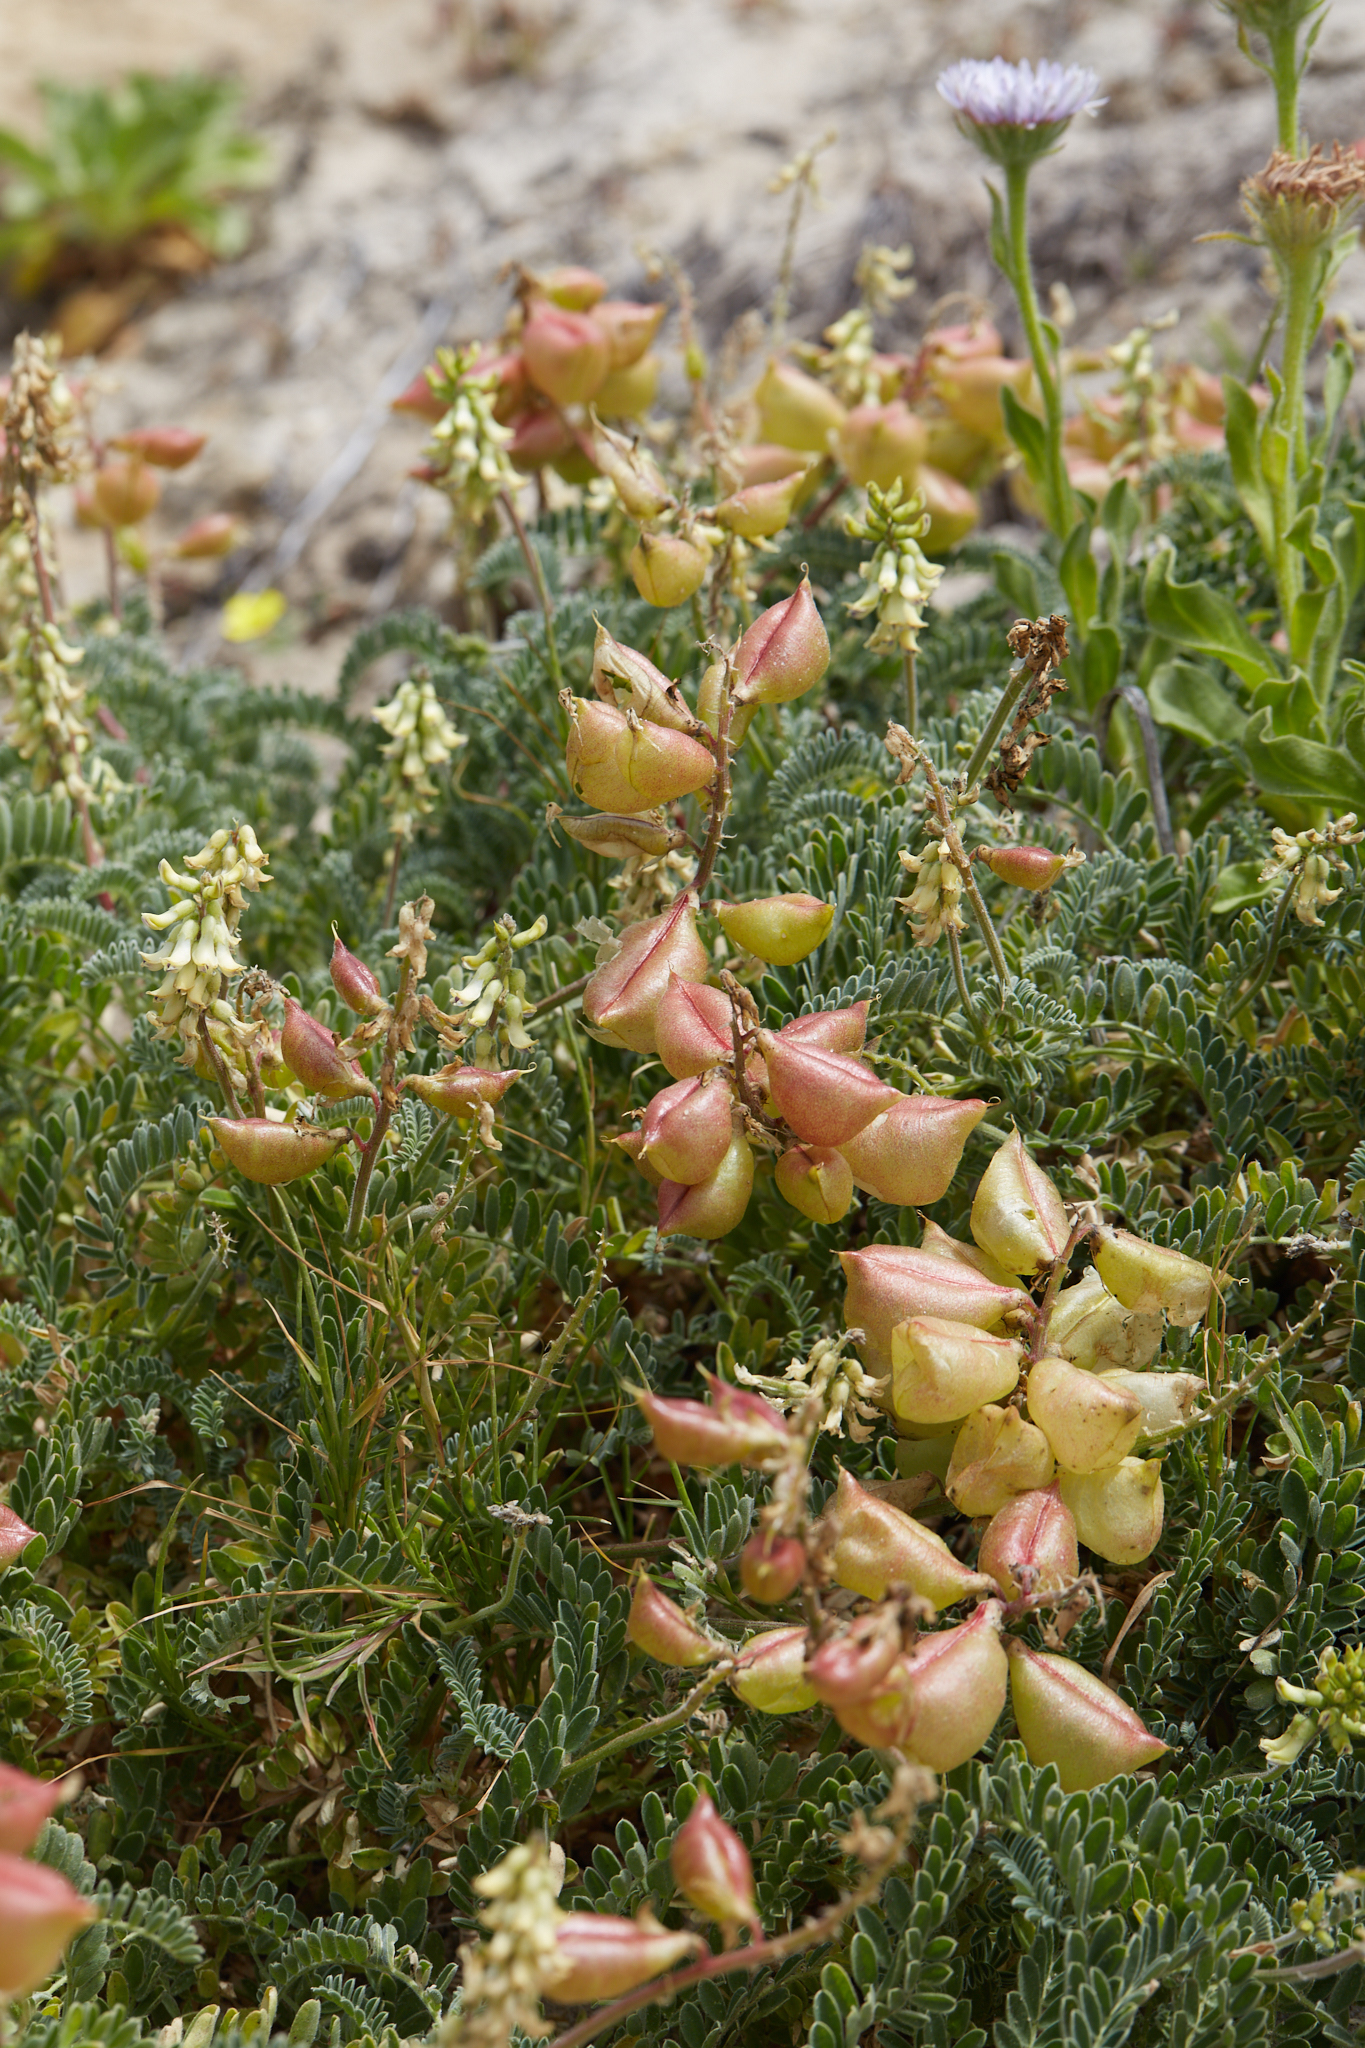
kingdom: Plantae
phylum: Tracheophyta
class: Magnoliopsida
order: Fabales
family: Fabaceae
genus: Astragalus
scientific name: Astragalus nuttallii
